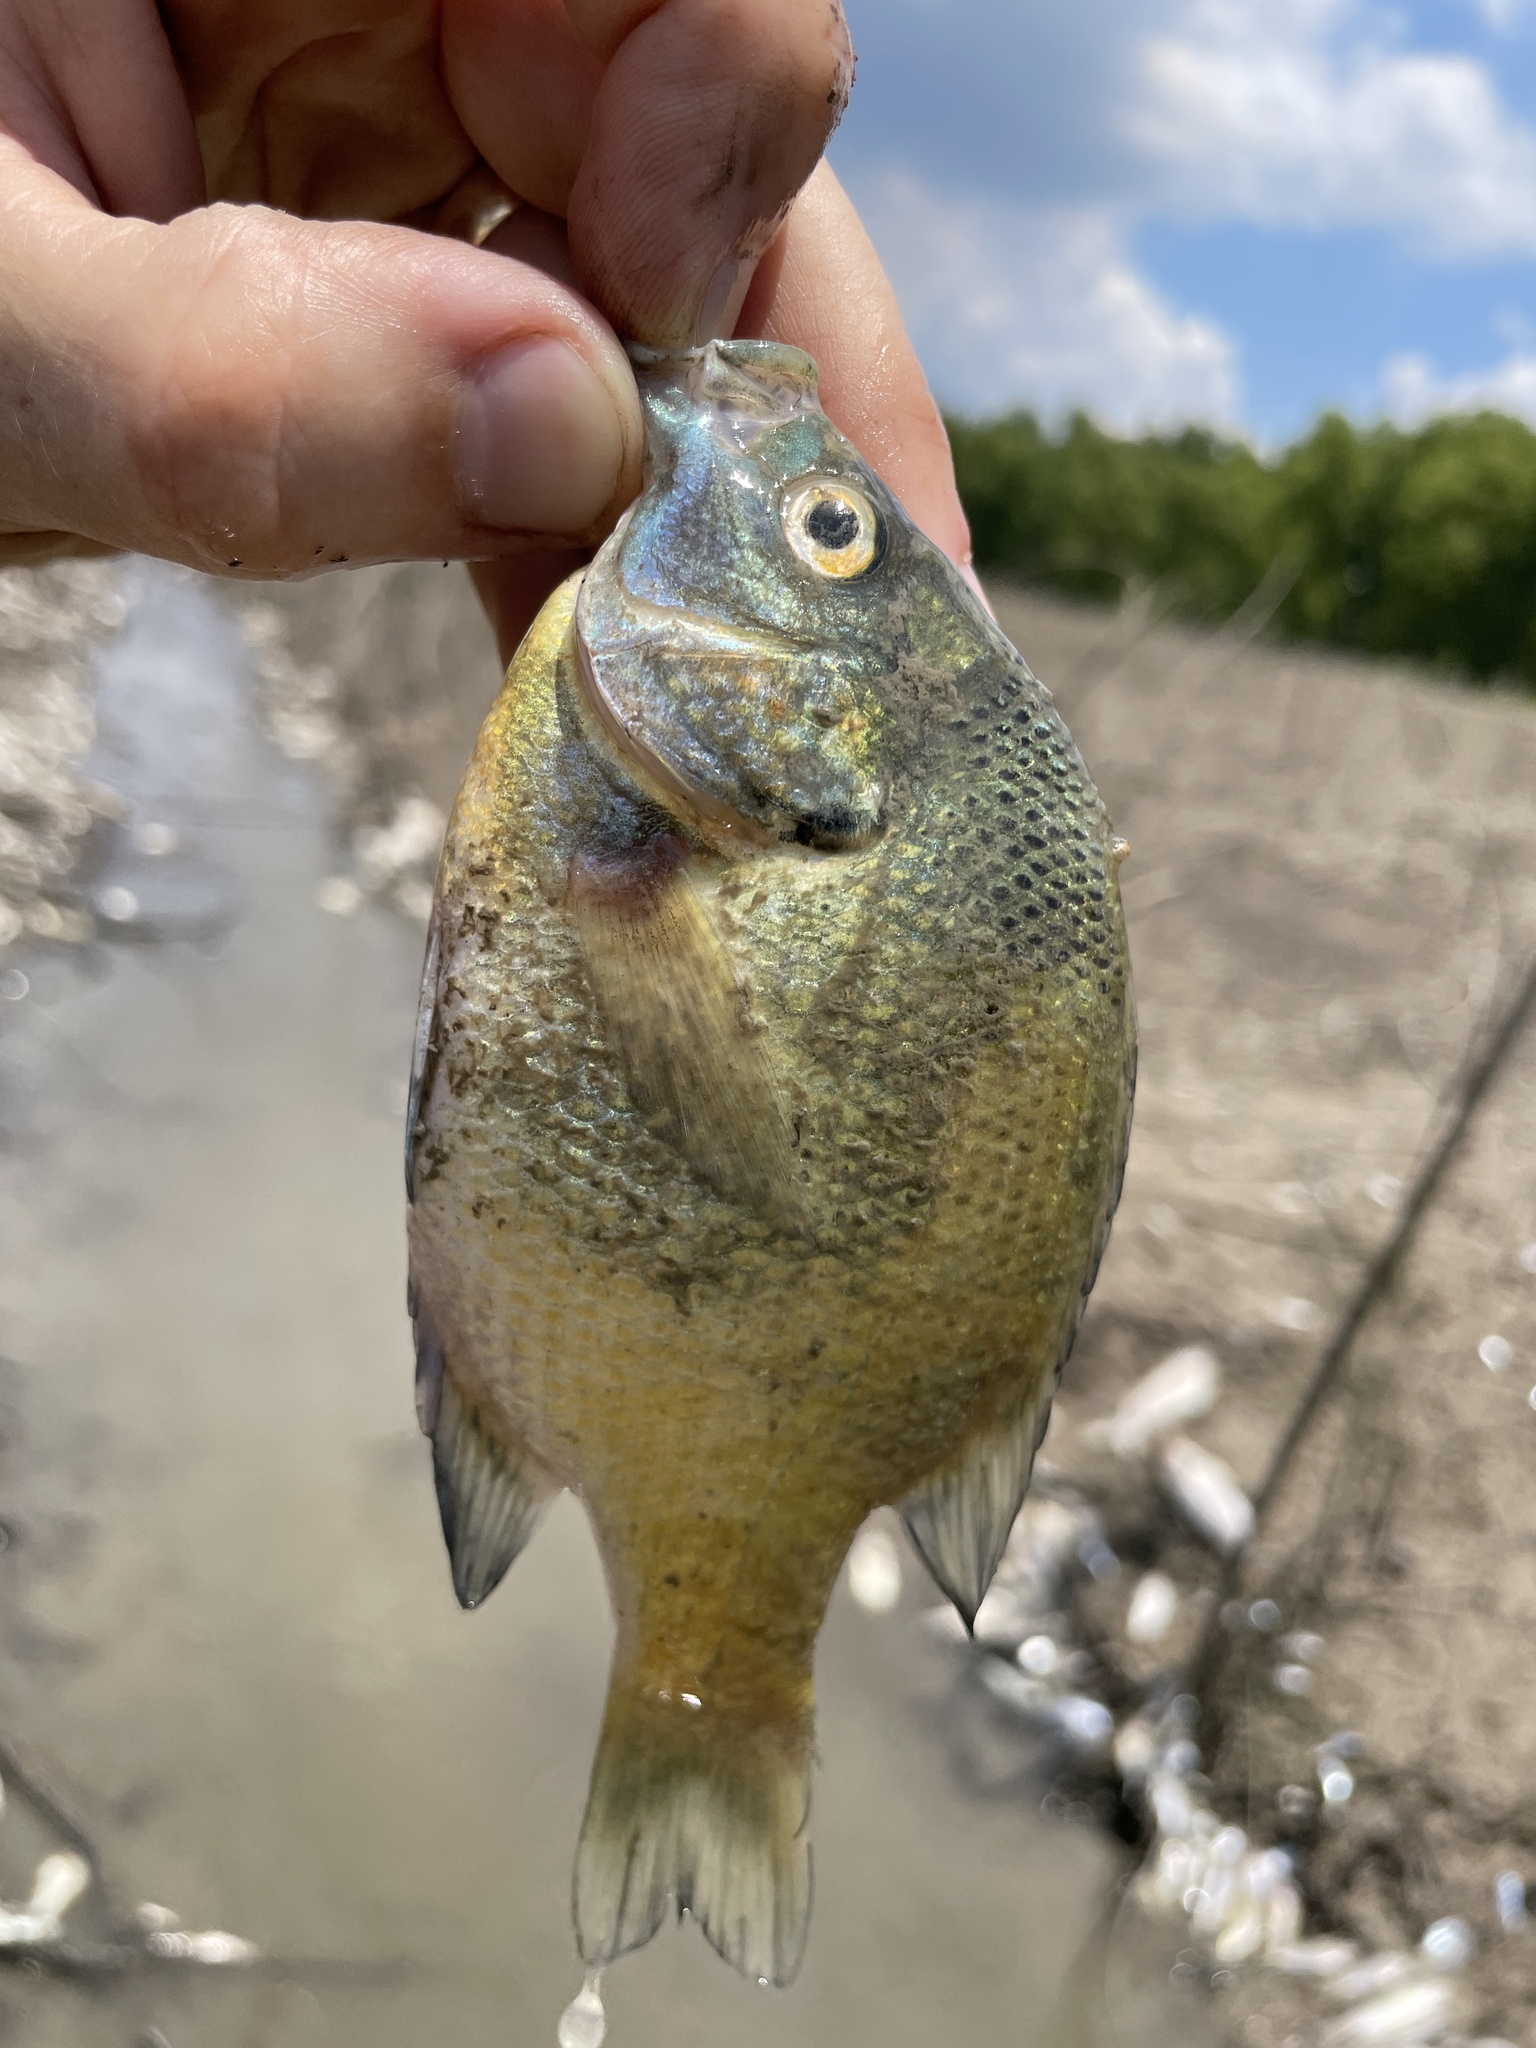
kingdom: Animalia
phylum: Chordata
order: Perciformes
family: Centrarchidae
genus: Lepomis
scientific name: Lepomis macrochirus
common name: Bluegill
